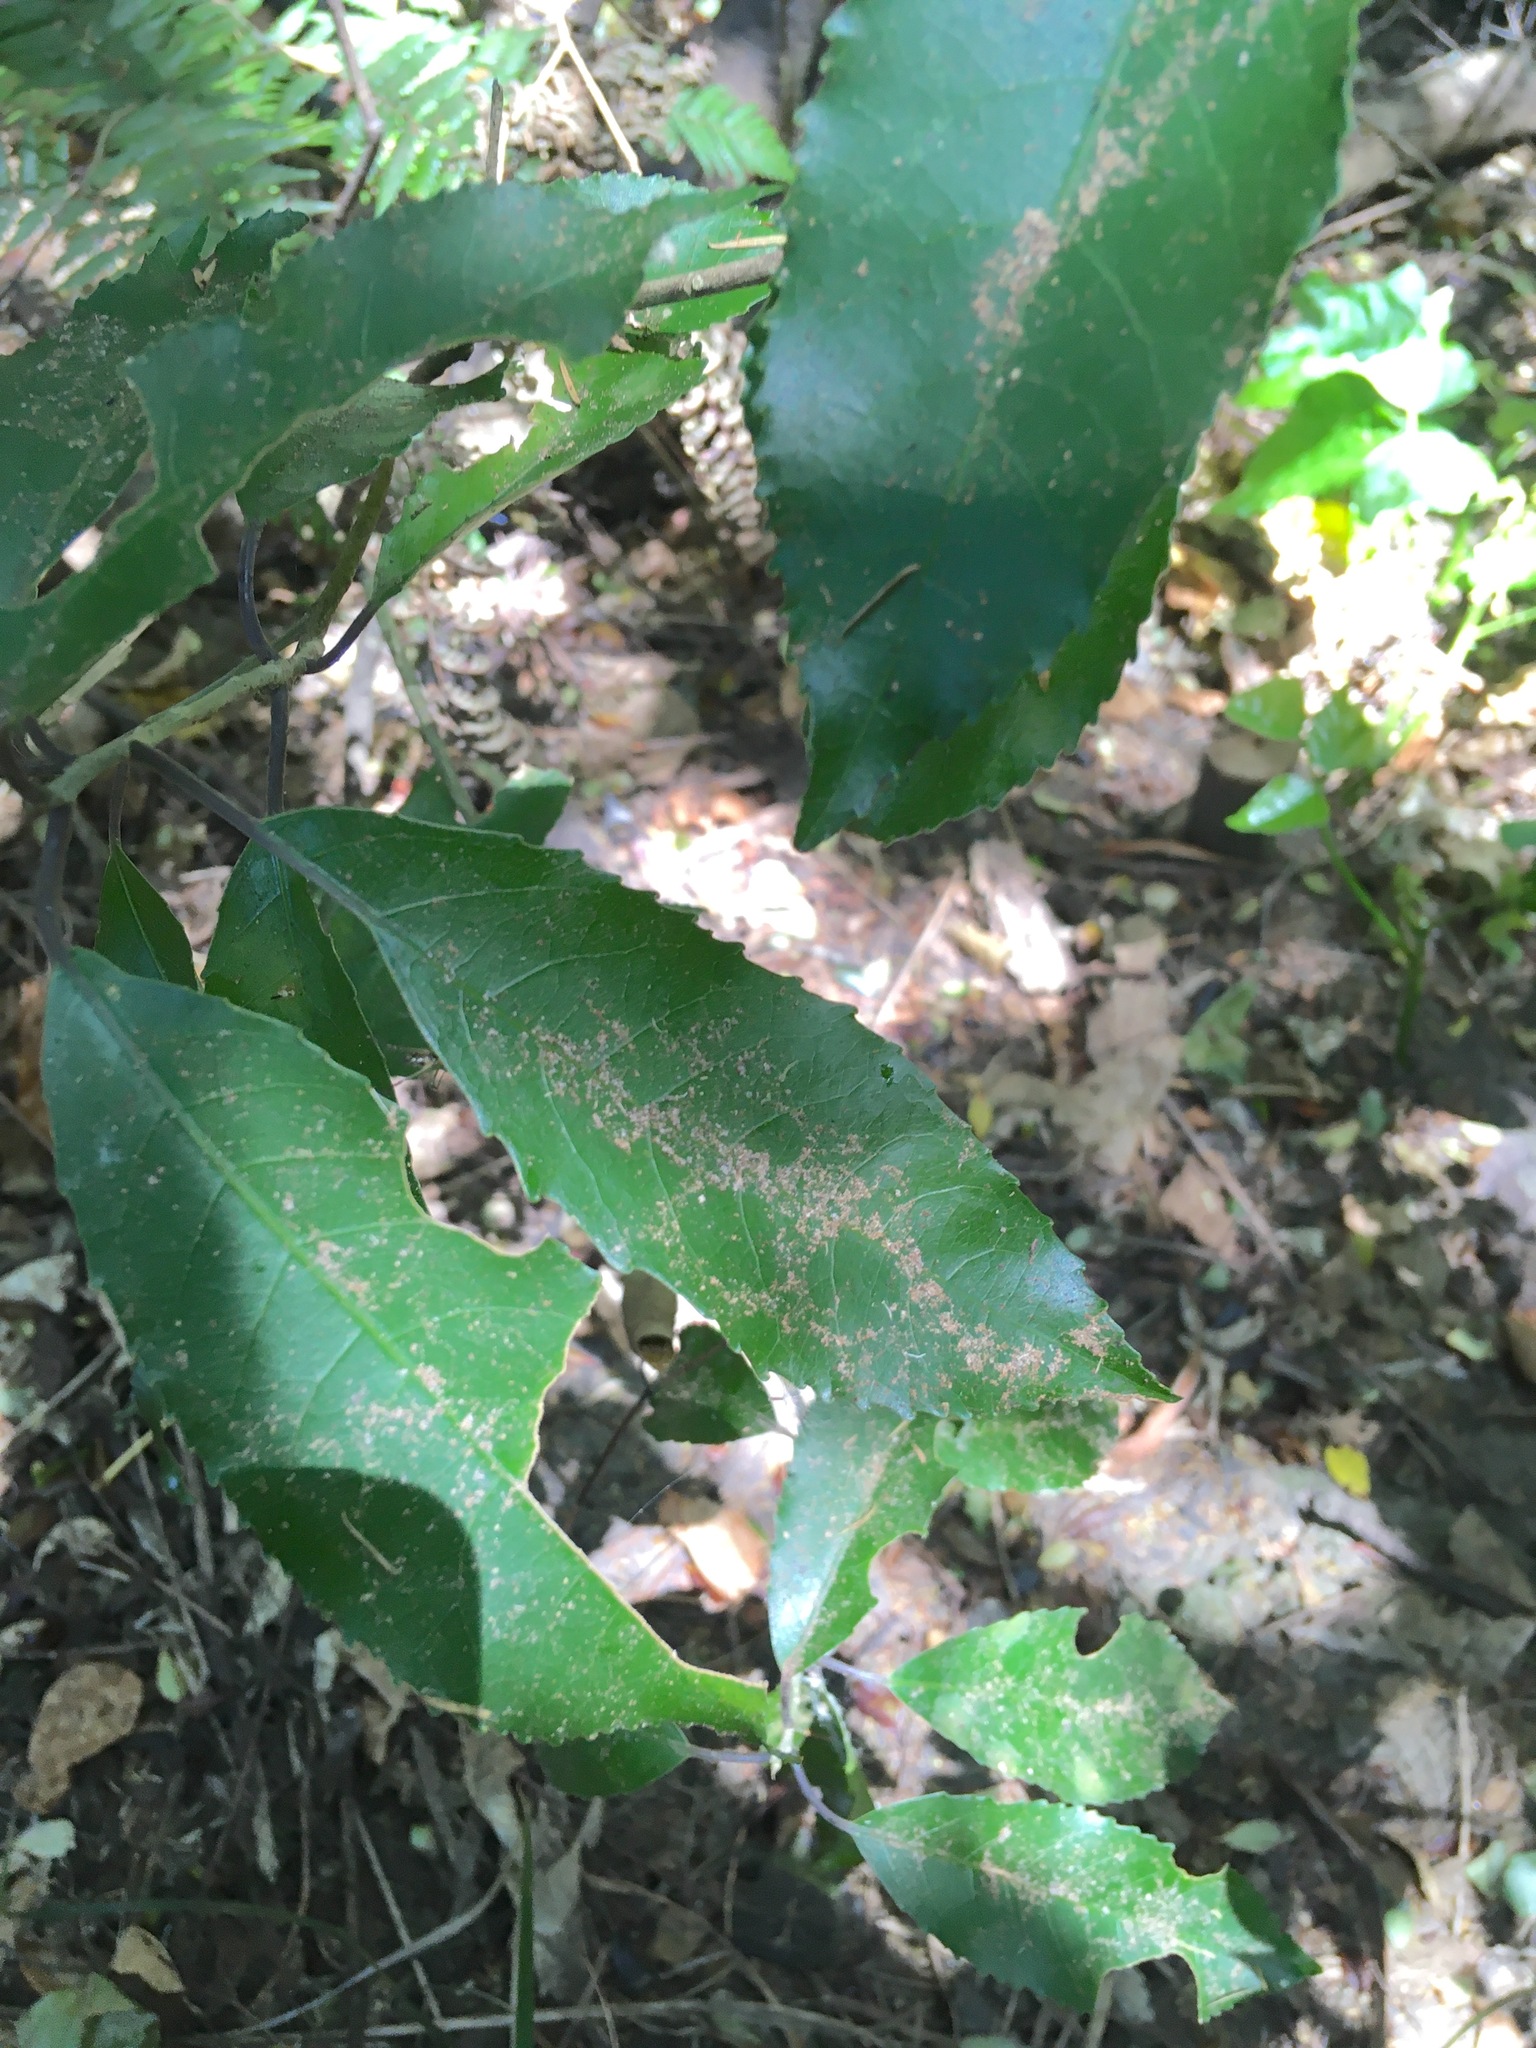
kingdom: Plantae
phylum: Tracheophyta
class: Magnoliopsida
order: Malpighiales
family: Violaceae
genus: Melicytus
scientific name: Melicytus ramiflorus
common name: Mahoe
